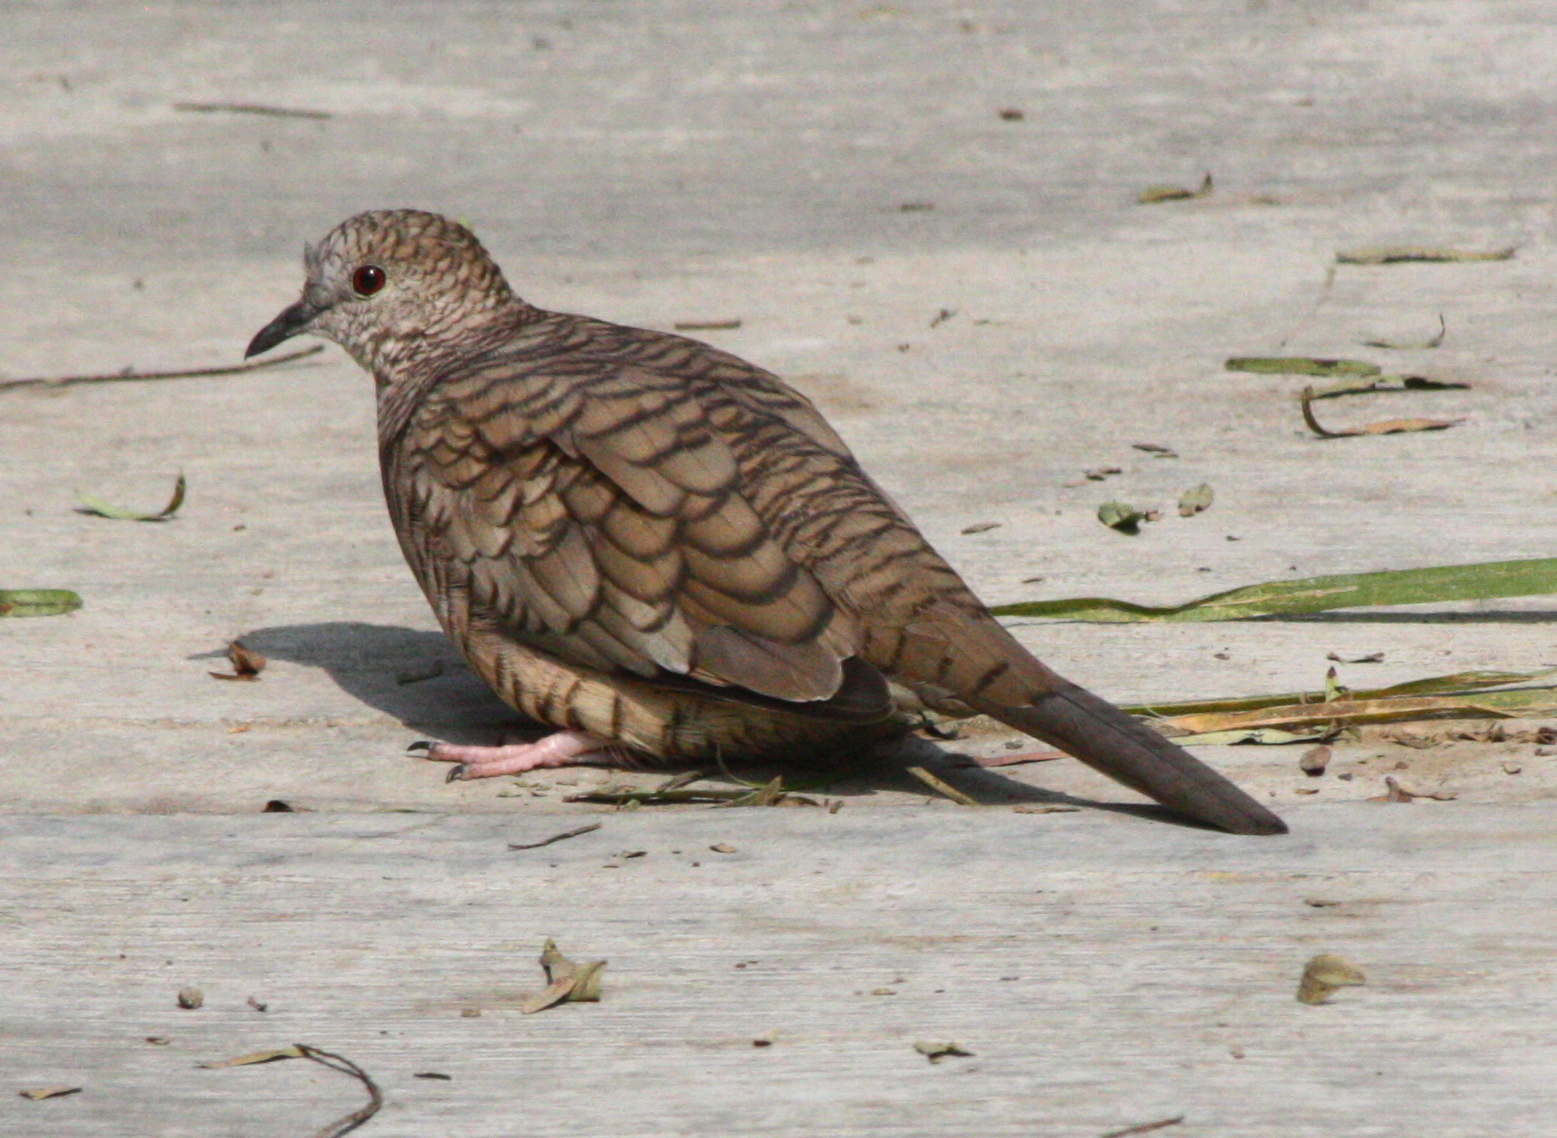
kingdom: Animalia
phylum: Chordata
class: Aves
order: Columbiformes
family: Columbidae
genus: Columbina
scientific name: Columbina inca
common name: Inca dove
